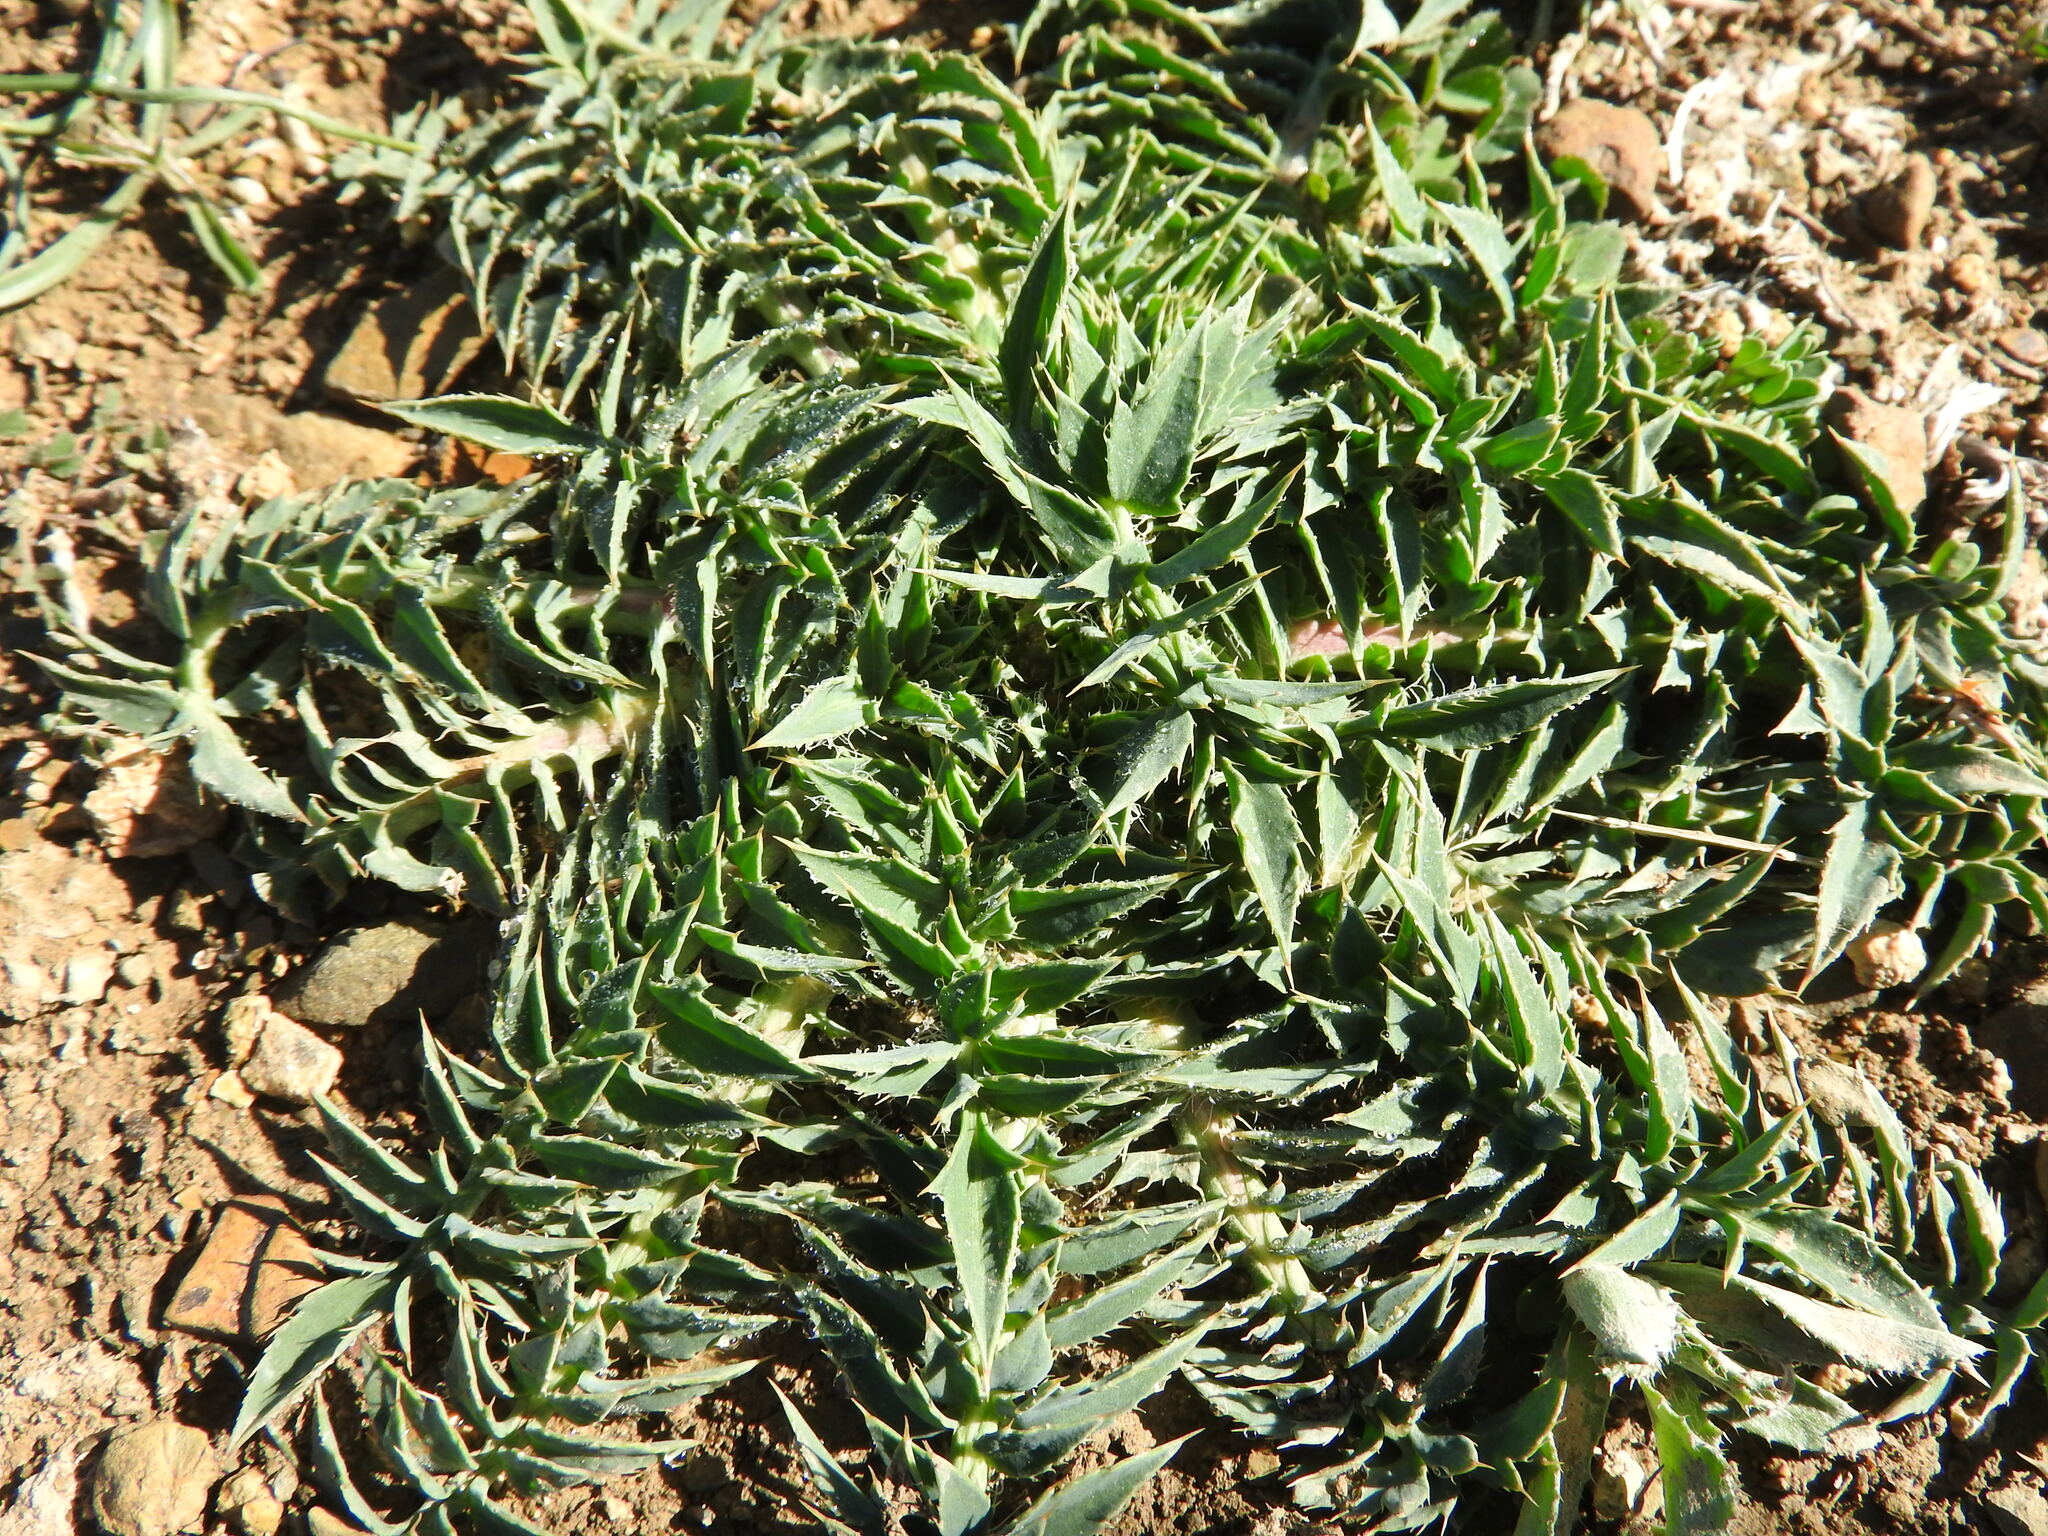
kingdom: Plantae
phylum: Tracheophyta
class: Magnoliopsida
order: Asterales
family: Asteraceae
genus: Carduncellus
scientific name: Carduncellus
